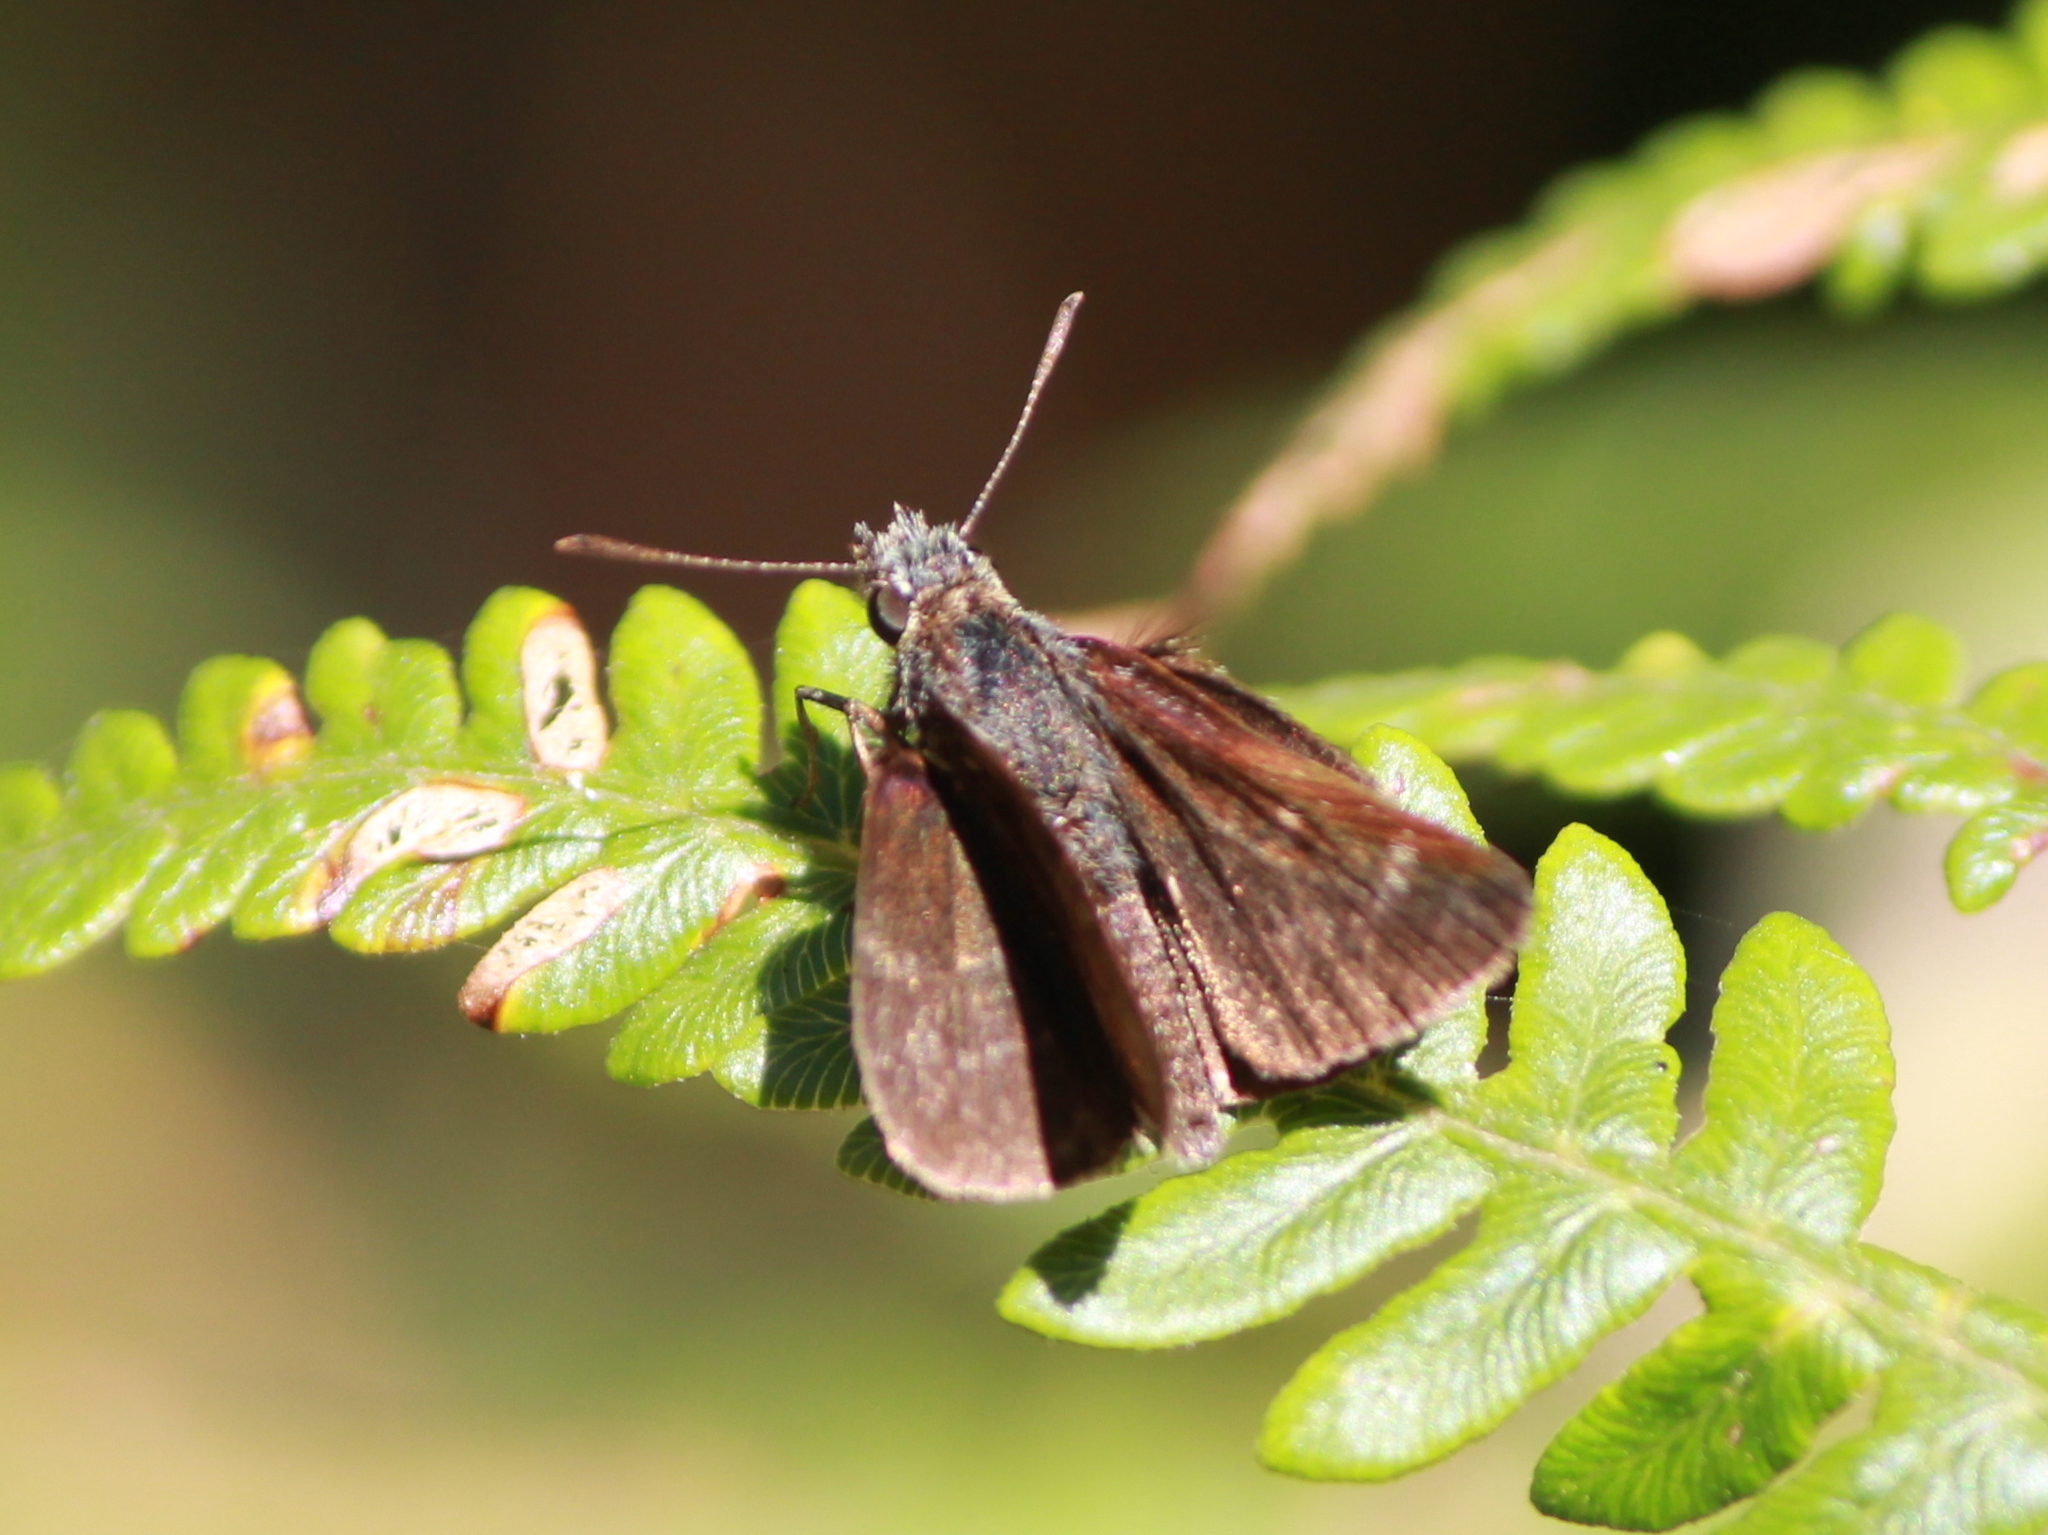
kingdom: Animalia
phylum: Arthropoda
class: Insecta
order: Lepidoptera
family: Hesperiidae
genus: Aeromachus
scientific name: Aeromachus dubius
